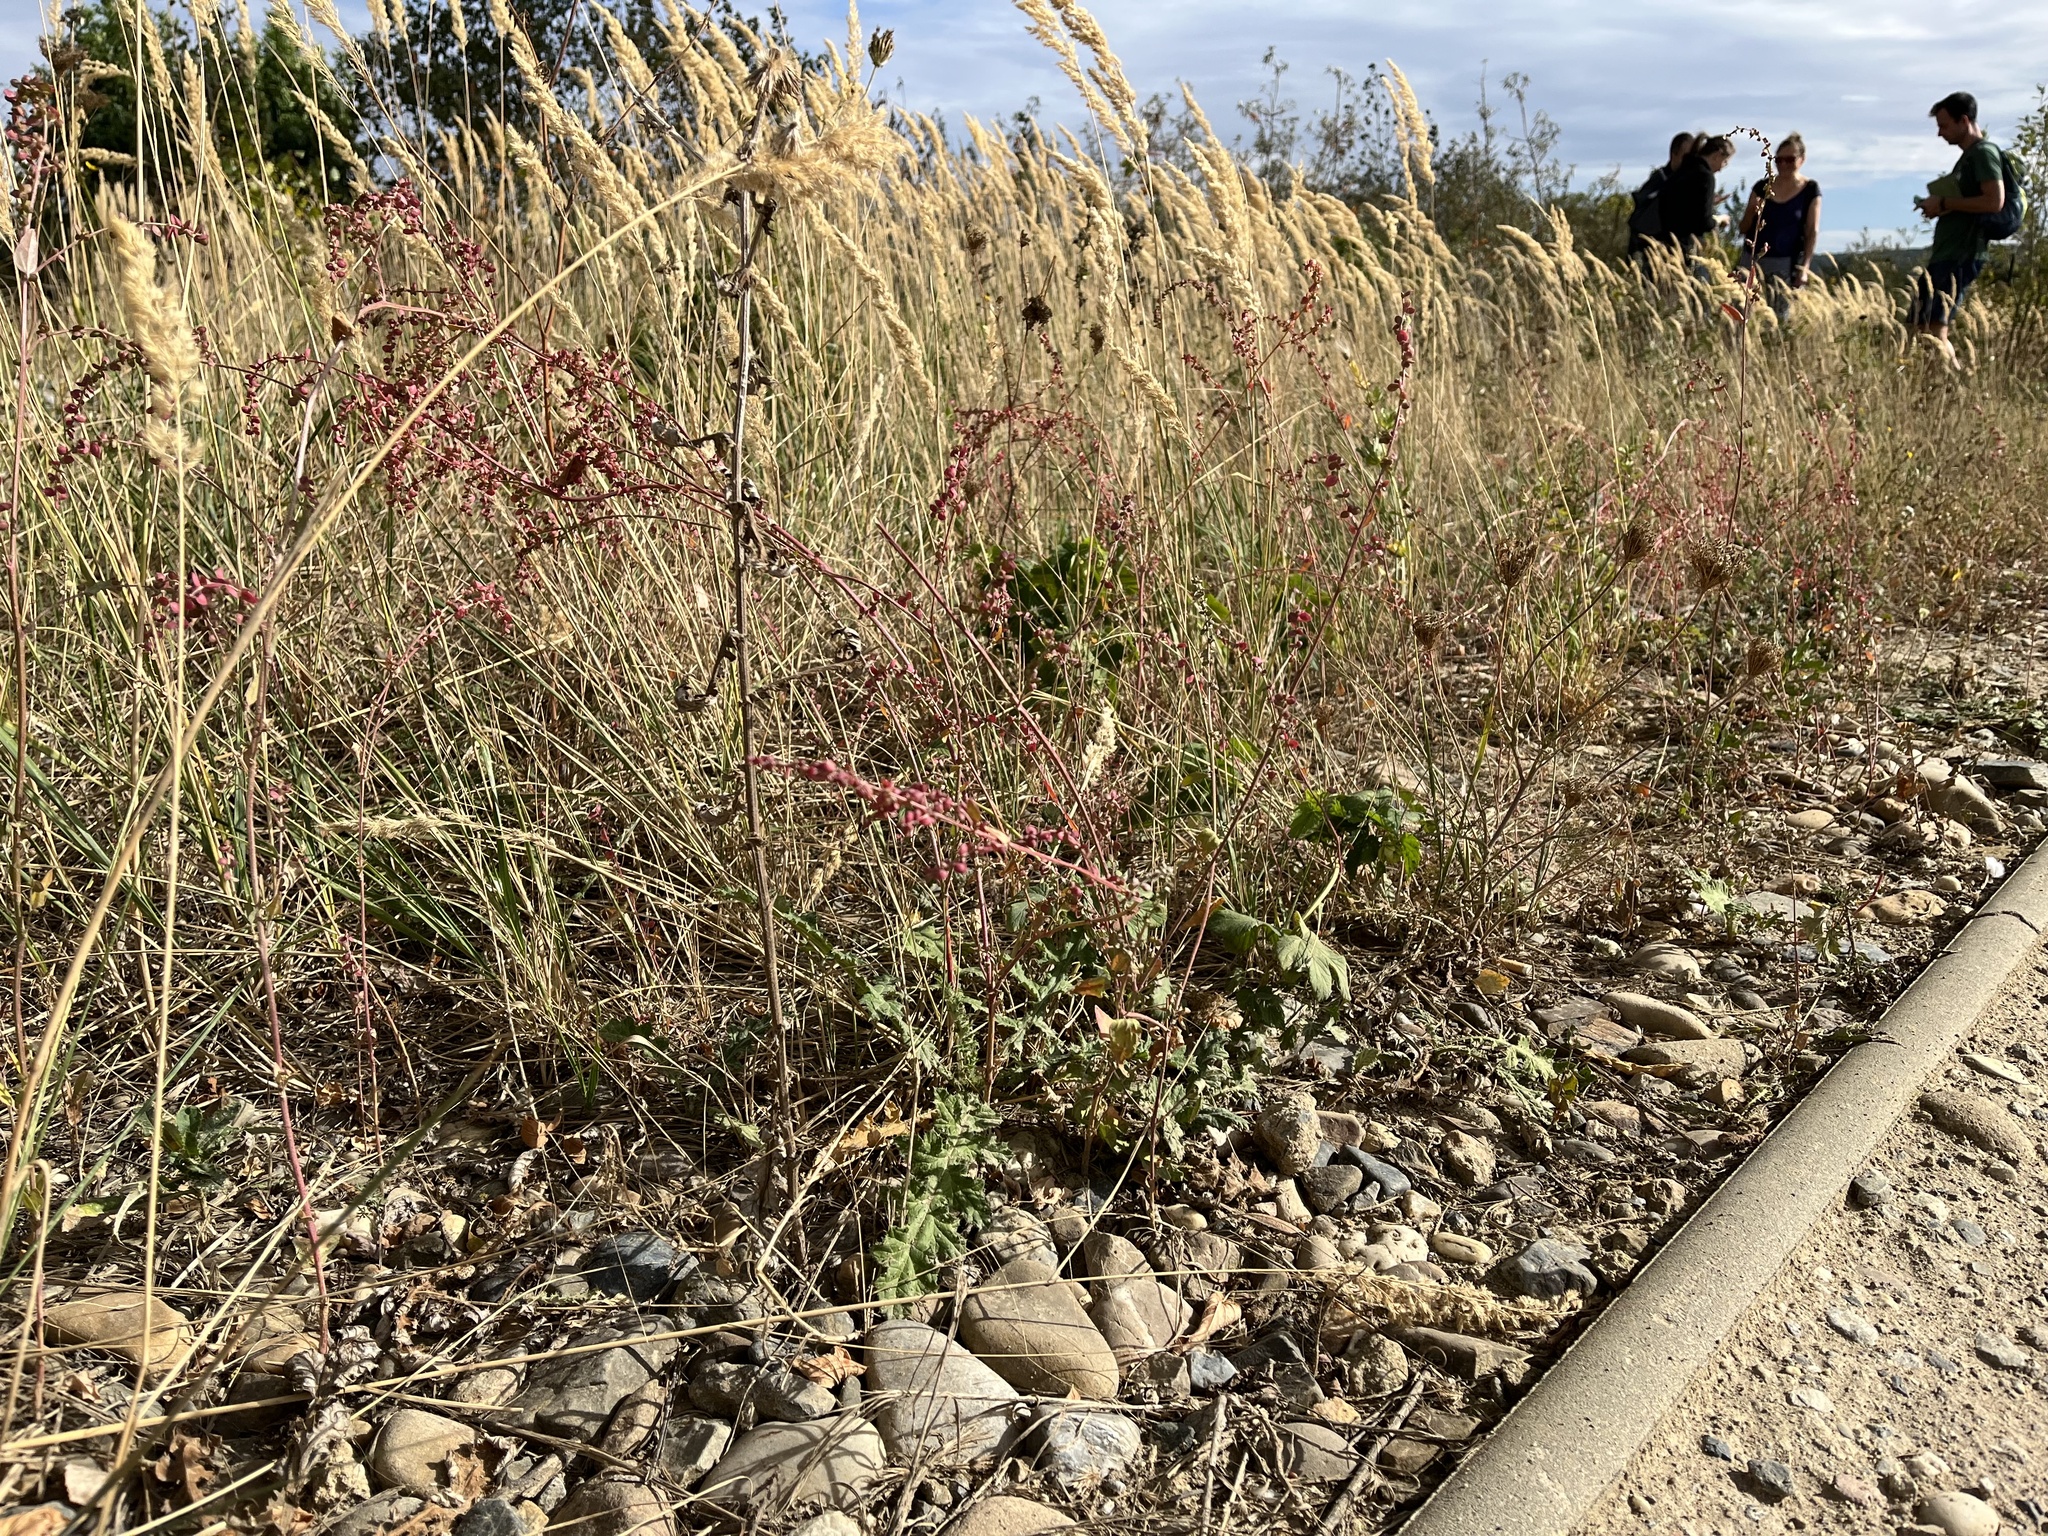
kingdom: Plantae
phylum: Tracheophyta
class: Magnoliopsida
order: Caryophyllales
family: Amaranthaceae
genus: Atriplex
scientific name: Atriplex micrantha
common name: Twoscale saltbush
